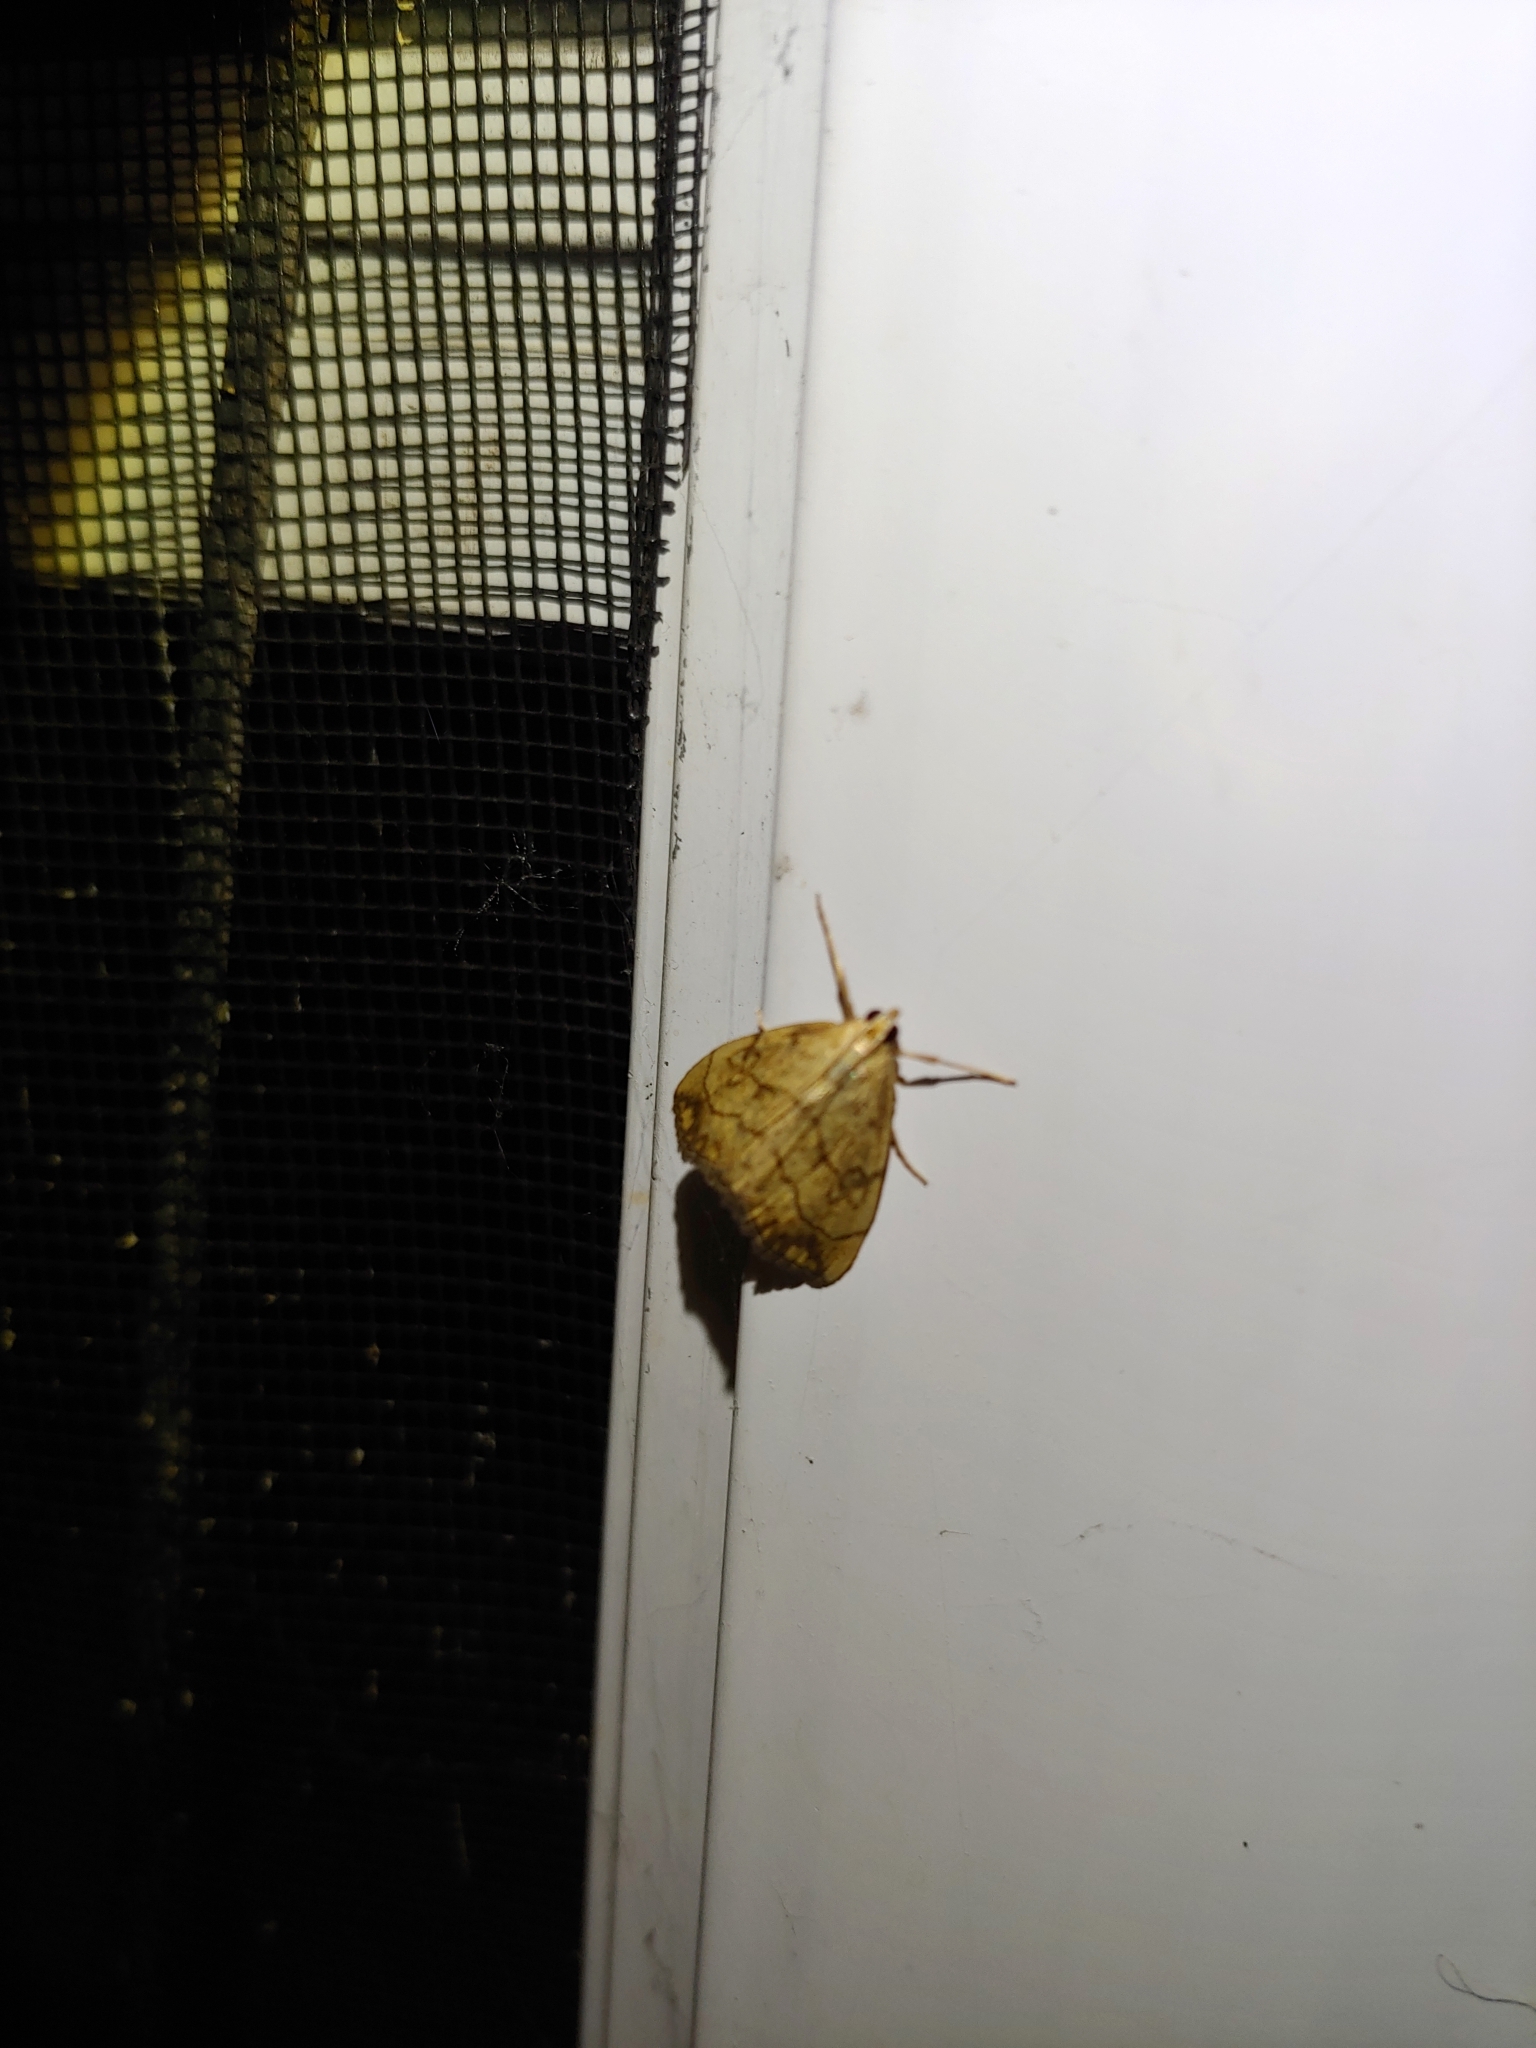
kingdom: Animalia
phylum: Arthropoda
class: Insecta
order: Lepidoptera
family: Crambidae
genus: Evergestis
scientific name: Evergestis pallidata
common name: Chequered pearl
